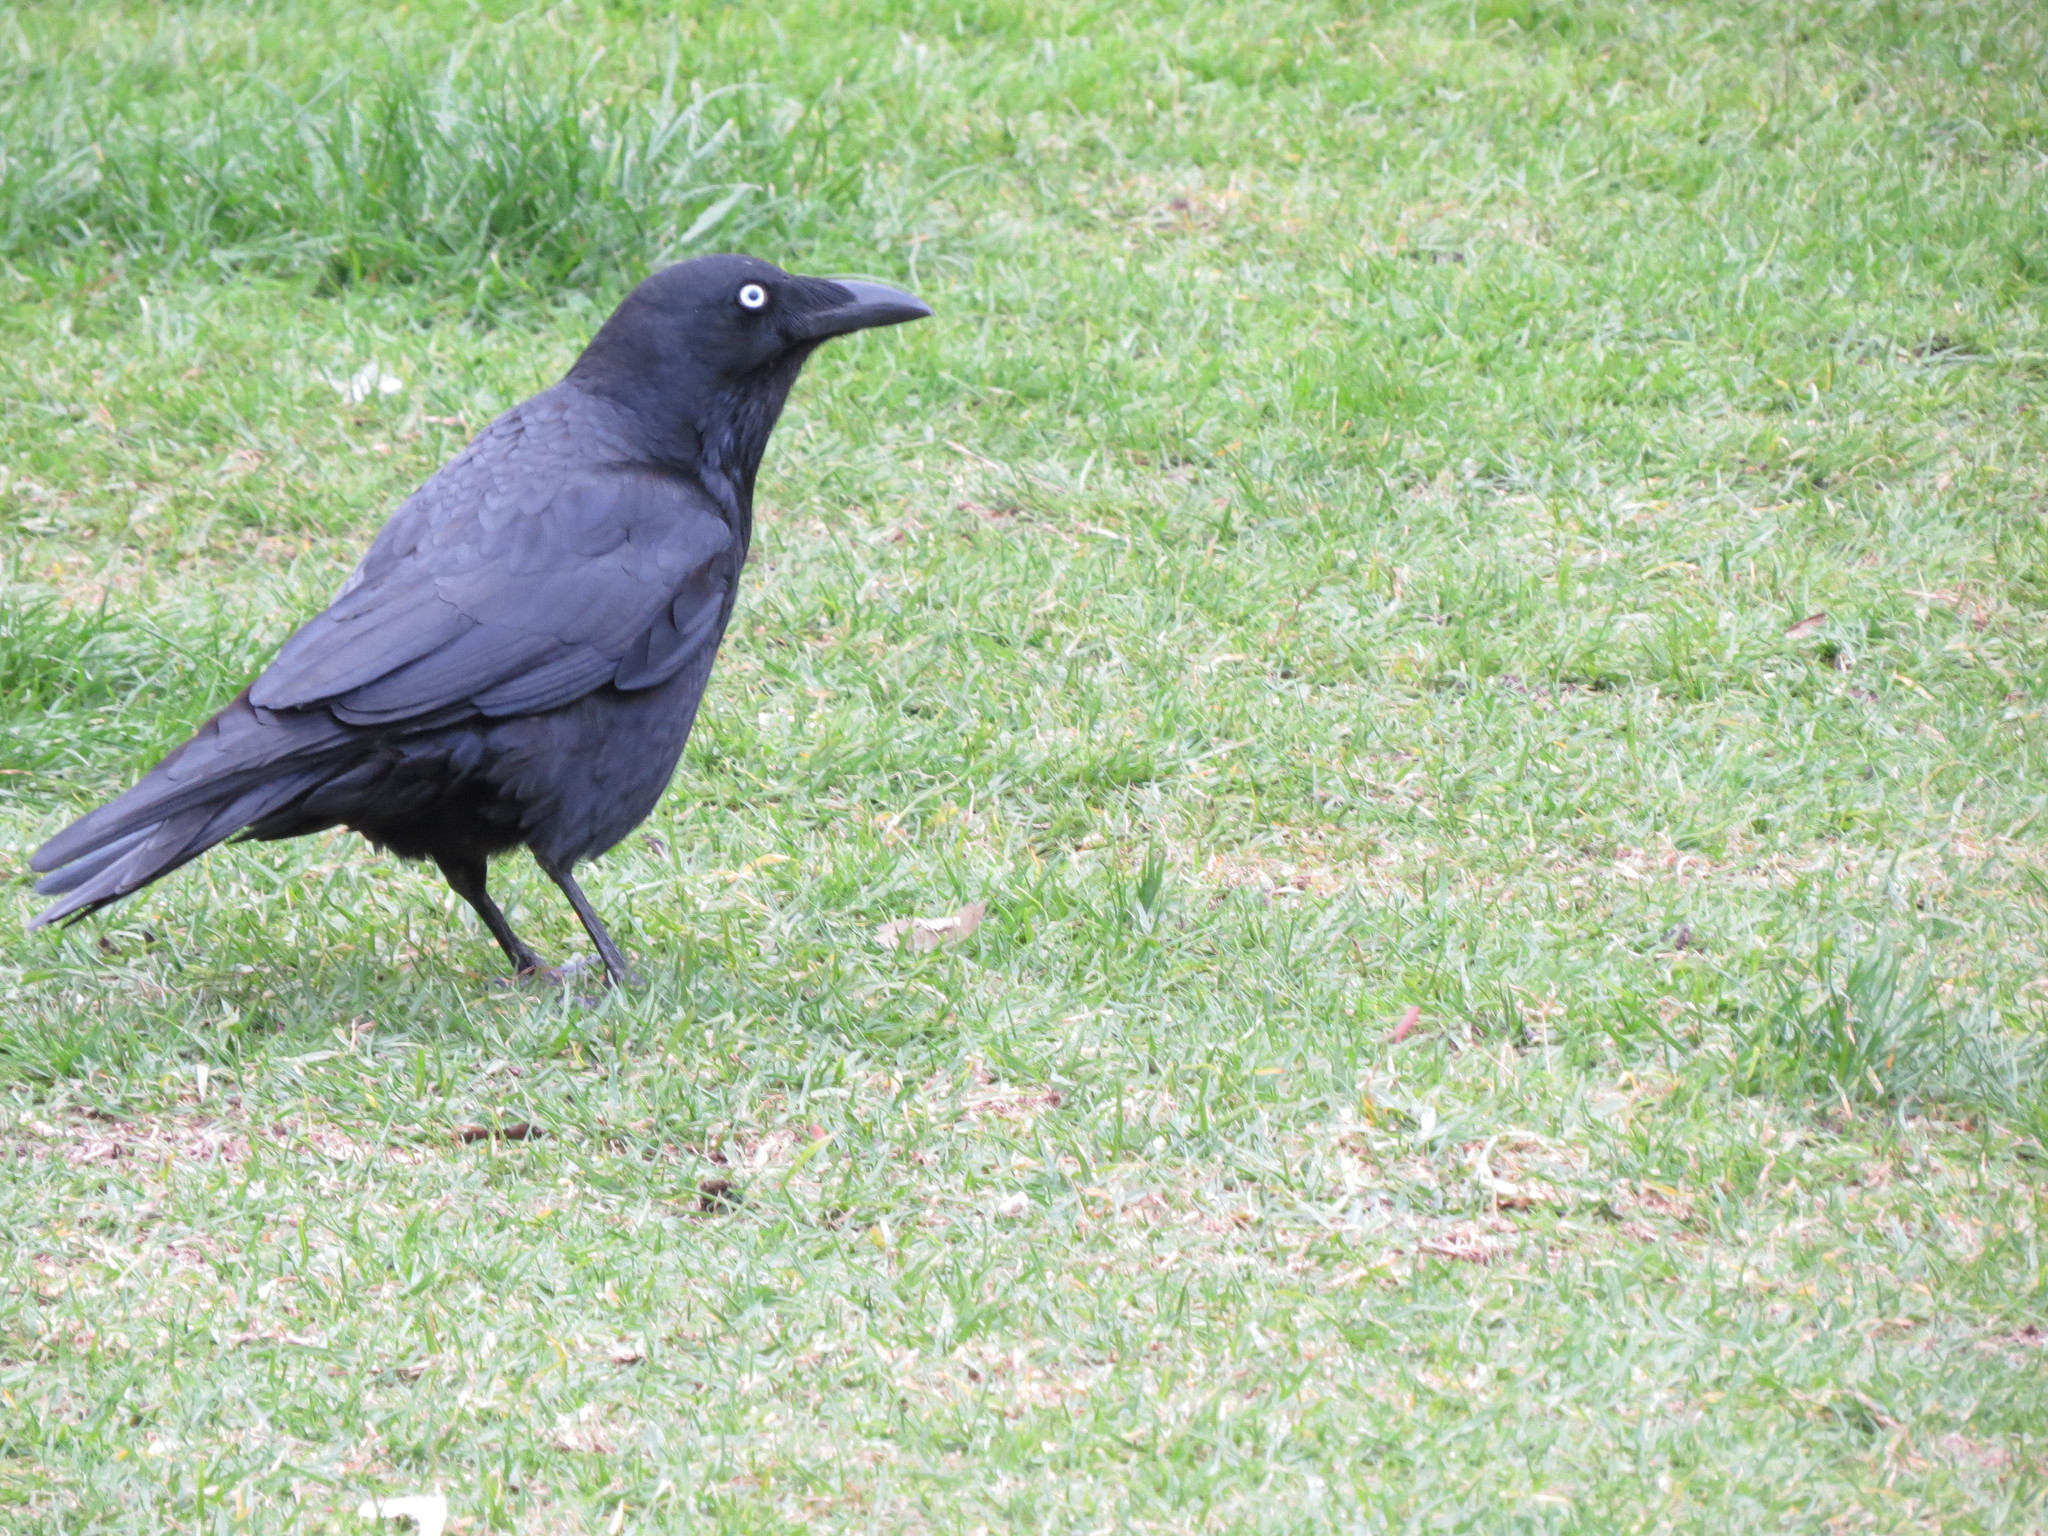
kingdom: Animalia
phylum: Chordata
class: Aves
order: Passeriformes
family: Corvidae
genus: Corvus
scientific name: Corvus mellori
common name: Little raven
